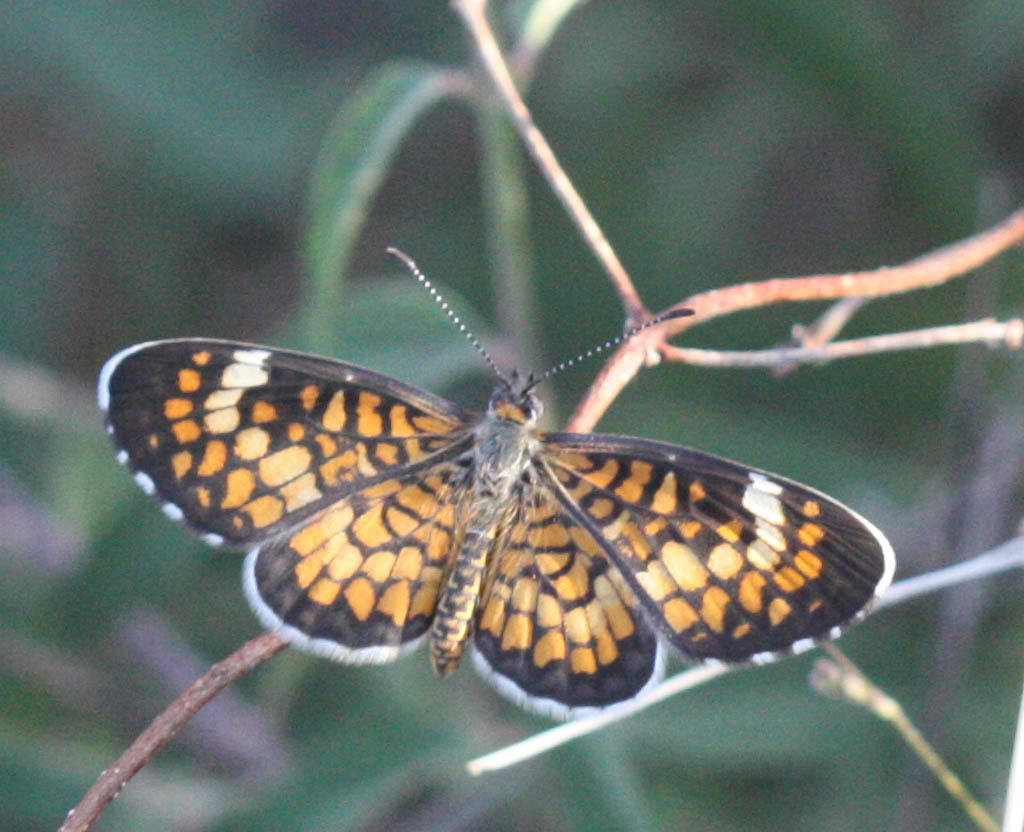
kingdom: Animalia
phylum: Arthropoda
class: Insecta
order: Lepidoptera
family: Nymphalidae
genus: Dymasia
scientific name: Dymasia dymas
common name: Tiny checkerspot
